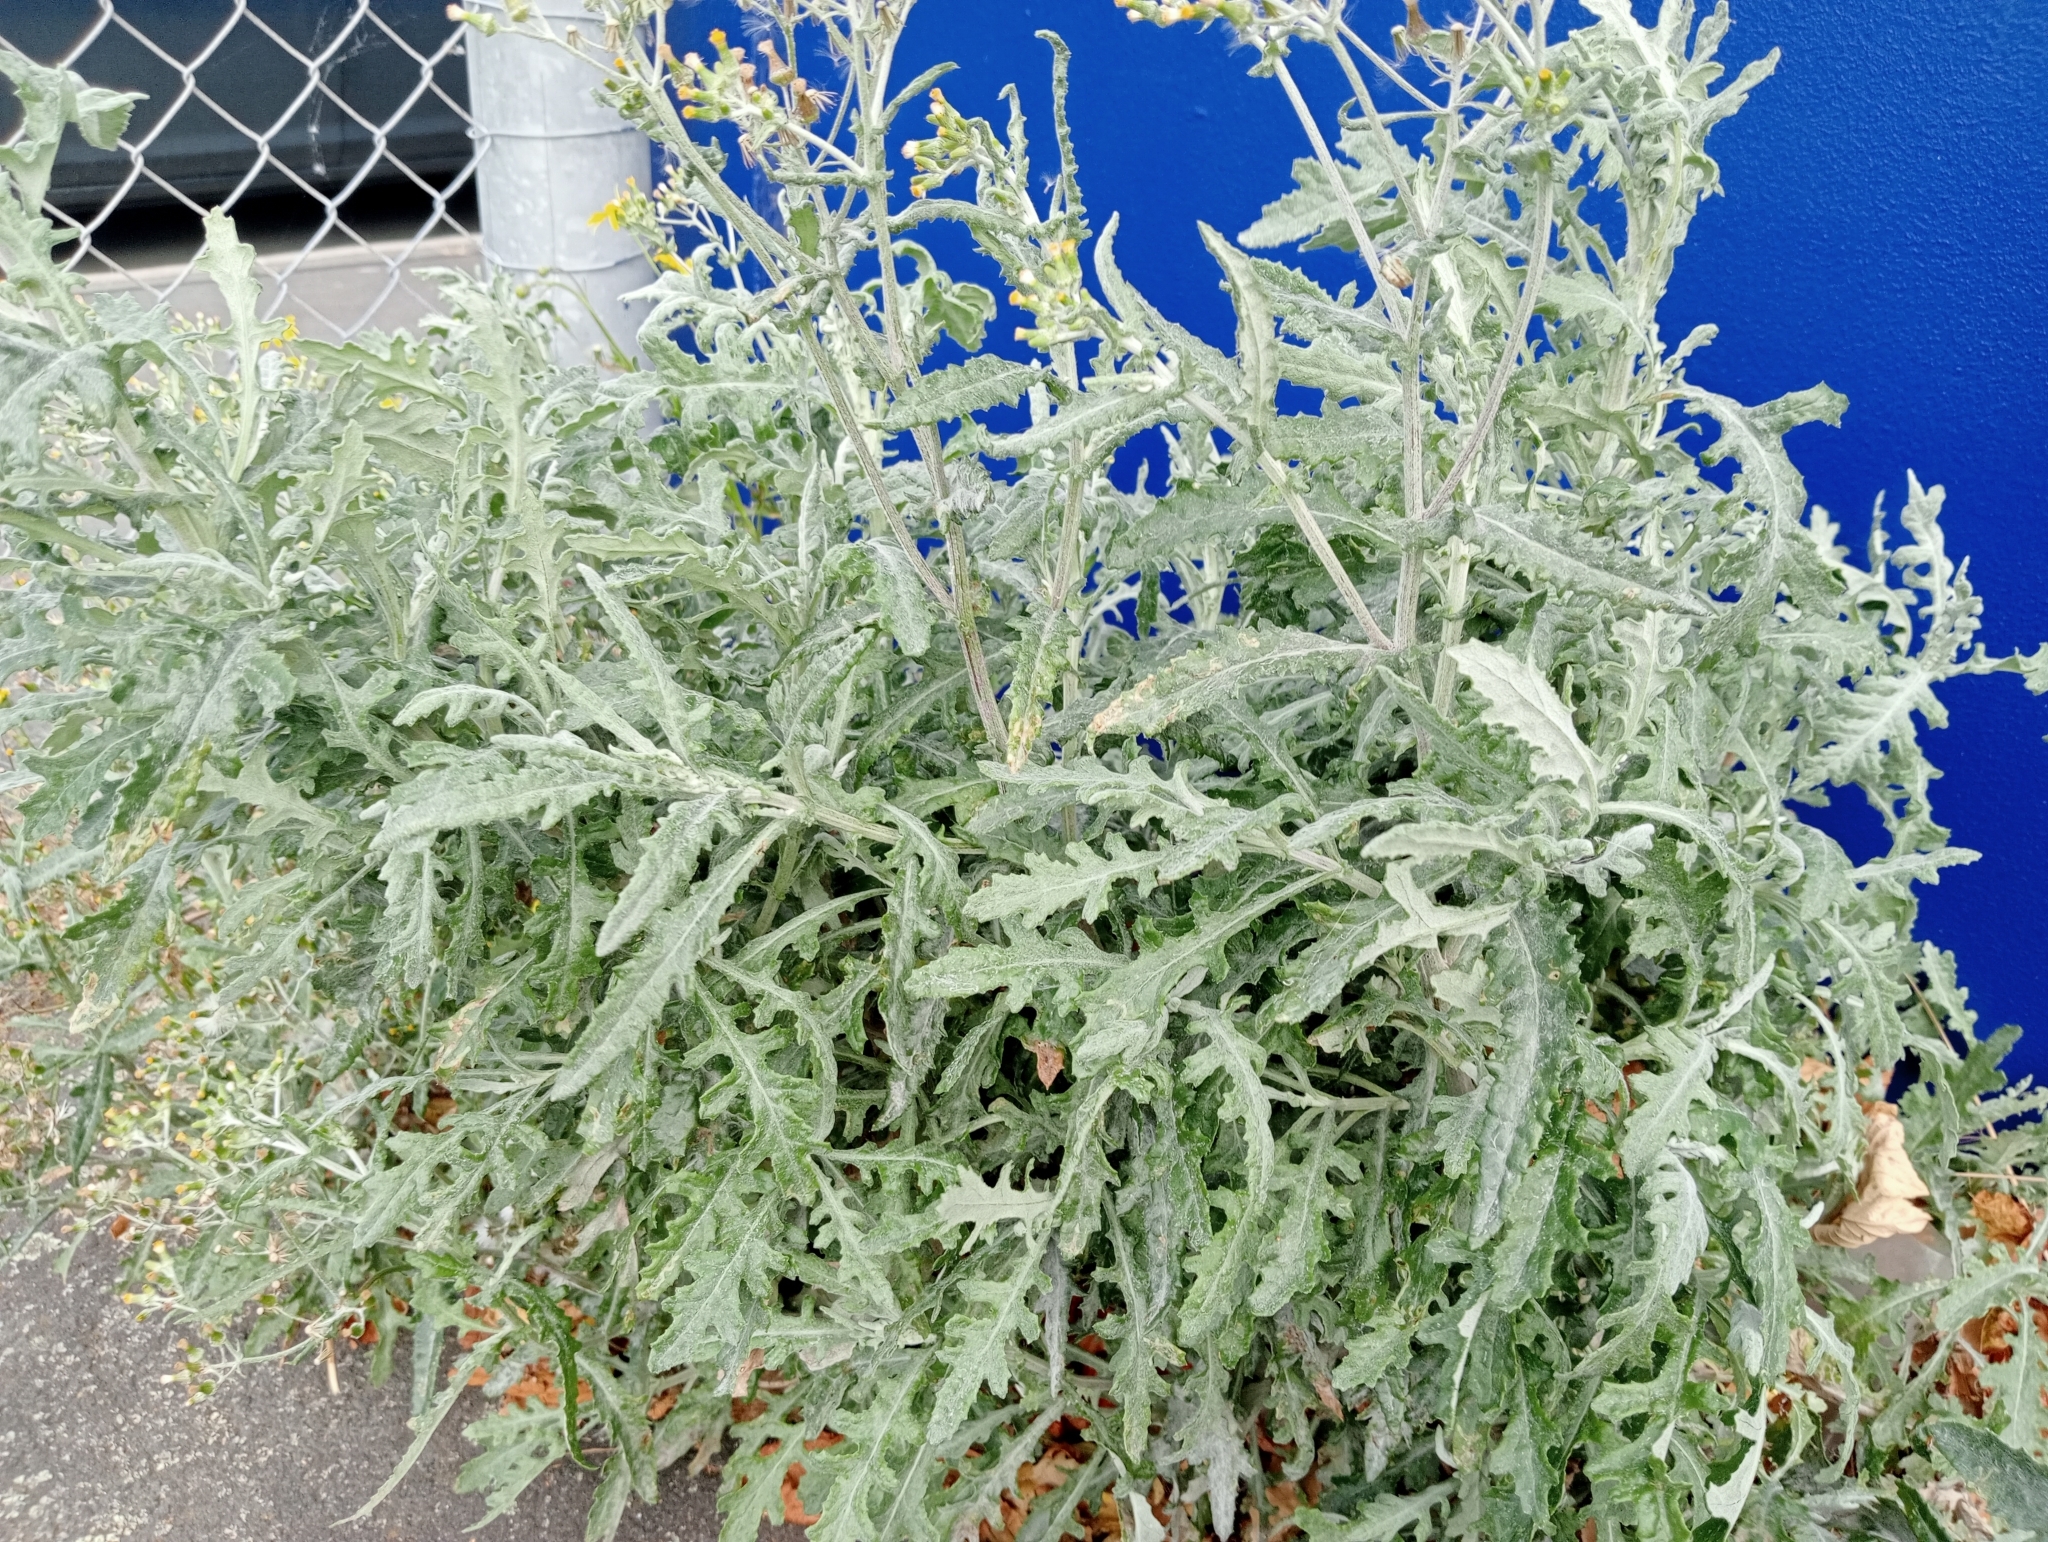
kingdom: Plantae
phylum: Tracheophyta
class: Magnoliopsida
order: Asterales
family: Asteraceae
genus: Senecio
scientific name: Senecio glomeratus
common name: Cutleaf burnweed
